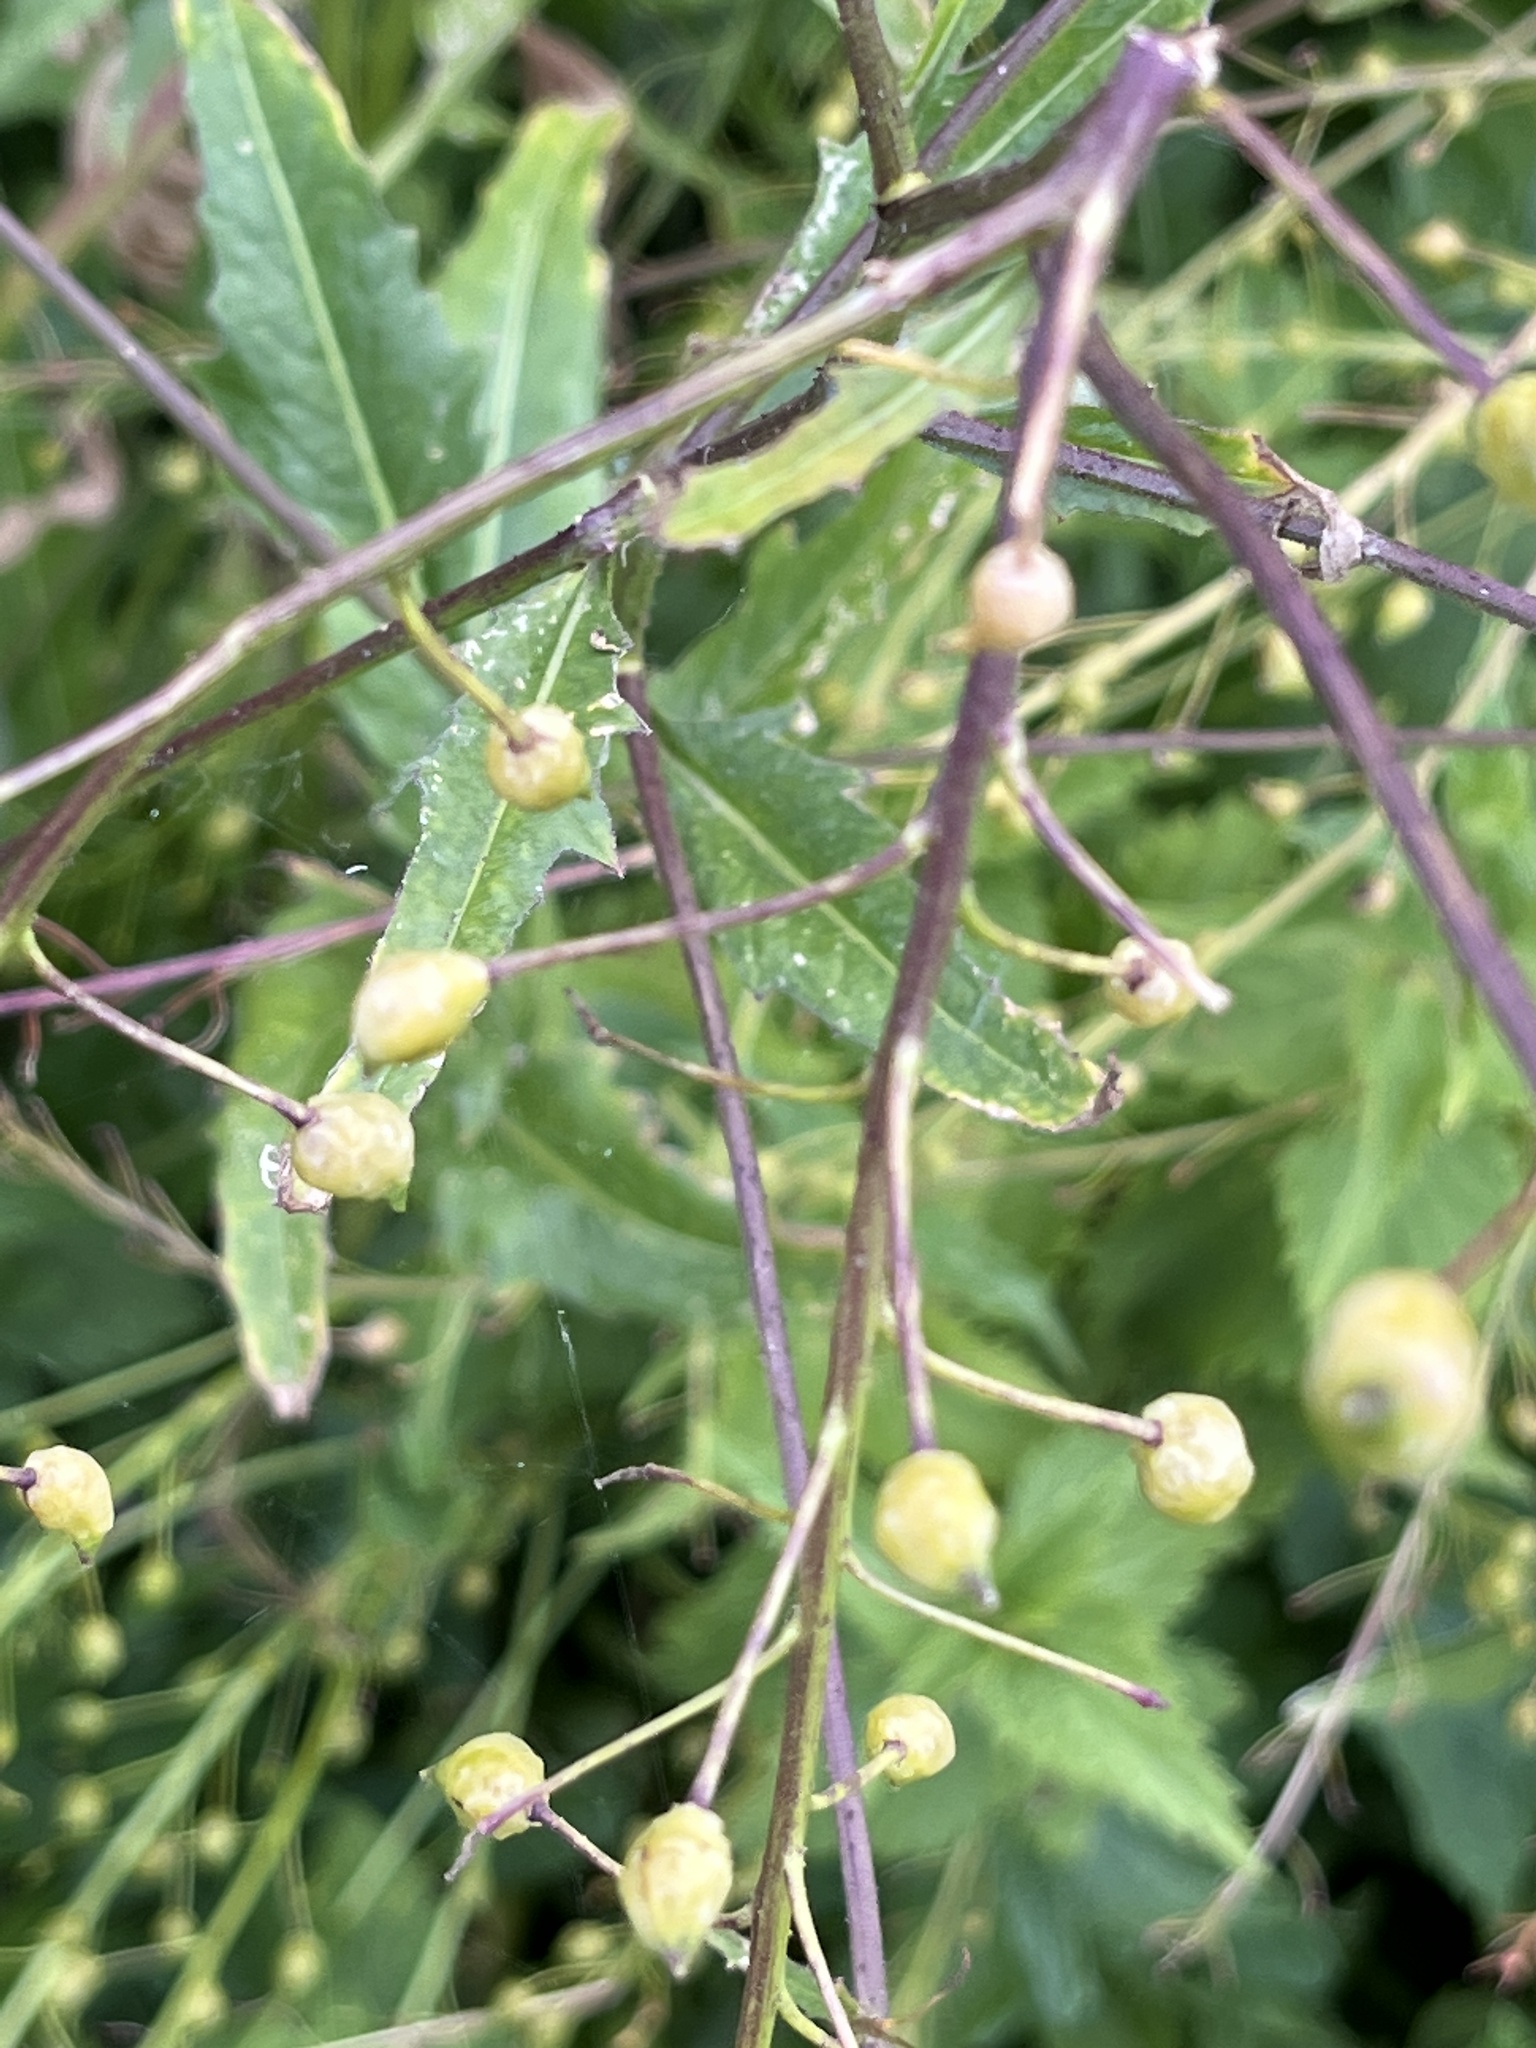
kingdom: Plantae
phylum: Tracheophyta
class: Magnoliopsida
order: Brassicales
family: Brassicaceae
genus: Bunias
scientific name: Bunias orientalis
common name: Warty-cabbage
